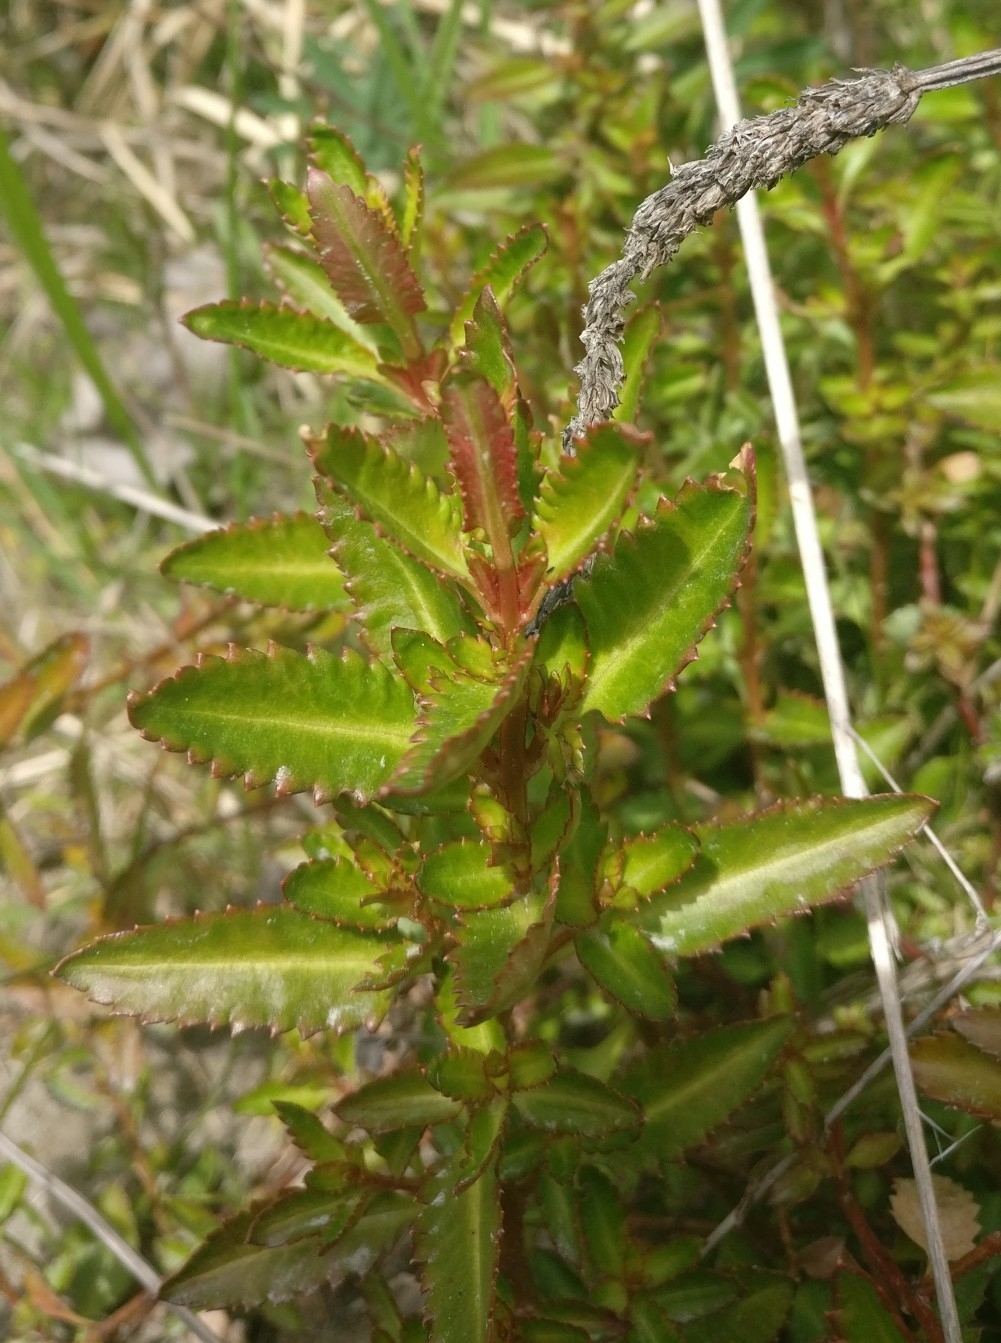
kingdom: Plantae
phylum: Tracheophyta
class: Magnoliopsida
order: Saxifragales
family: Haloragaceae
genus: Haloragis
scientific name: Haloragis erecta
